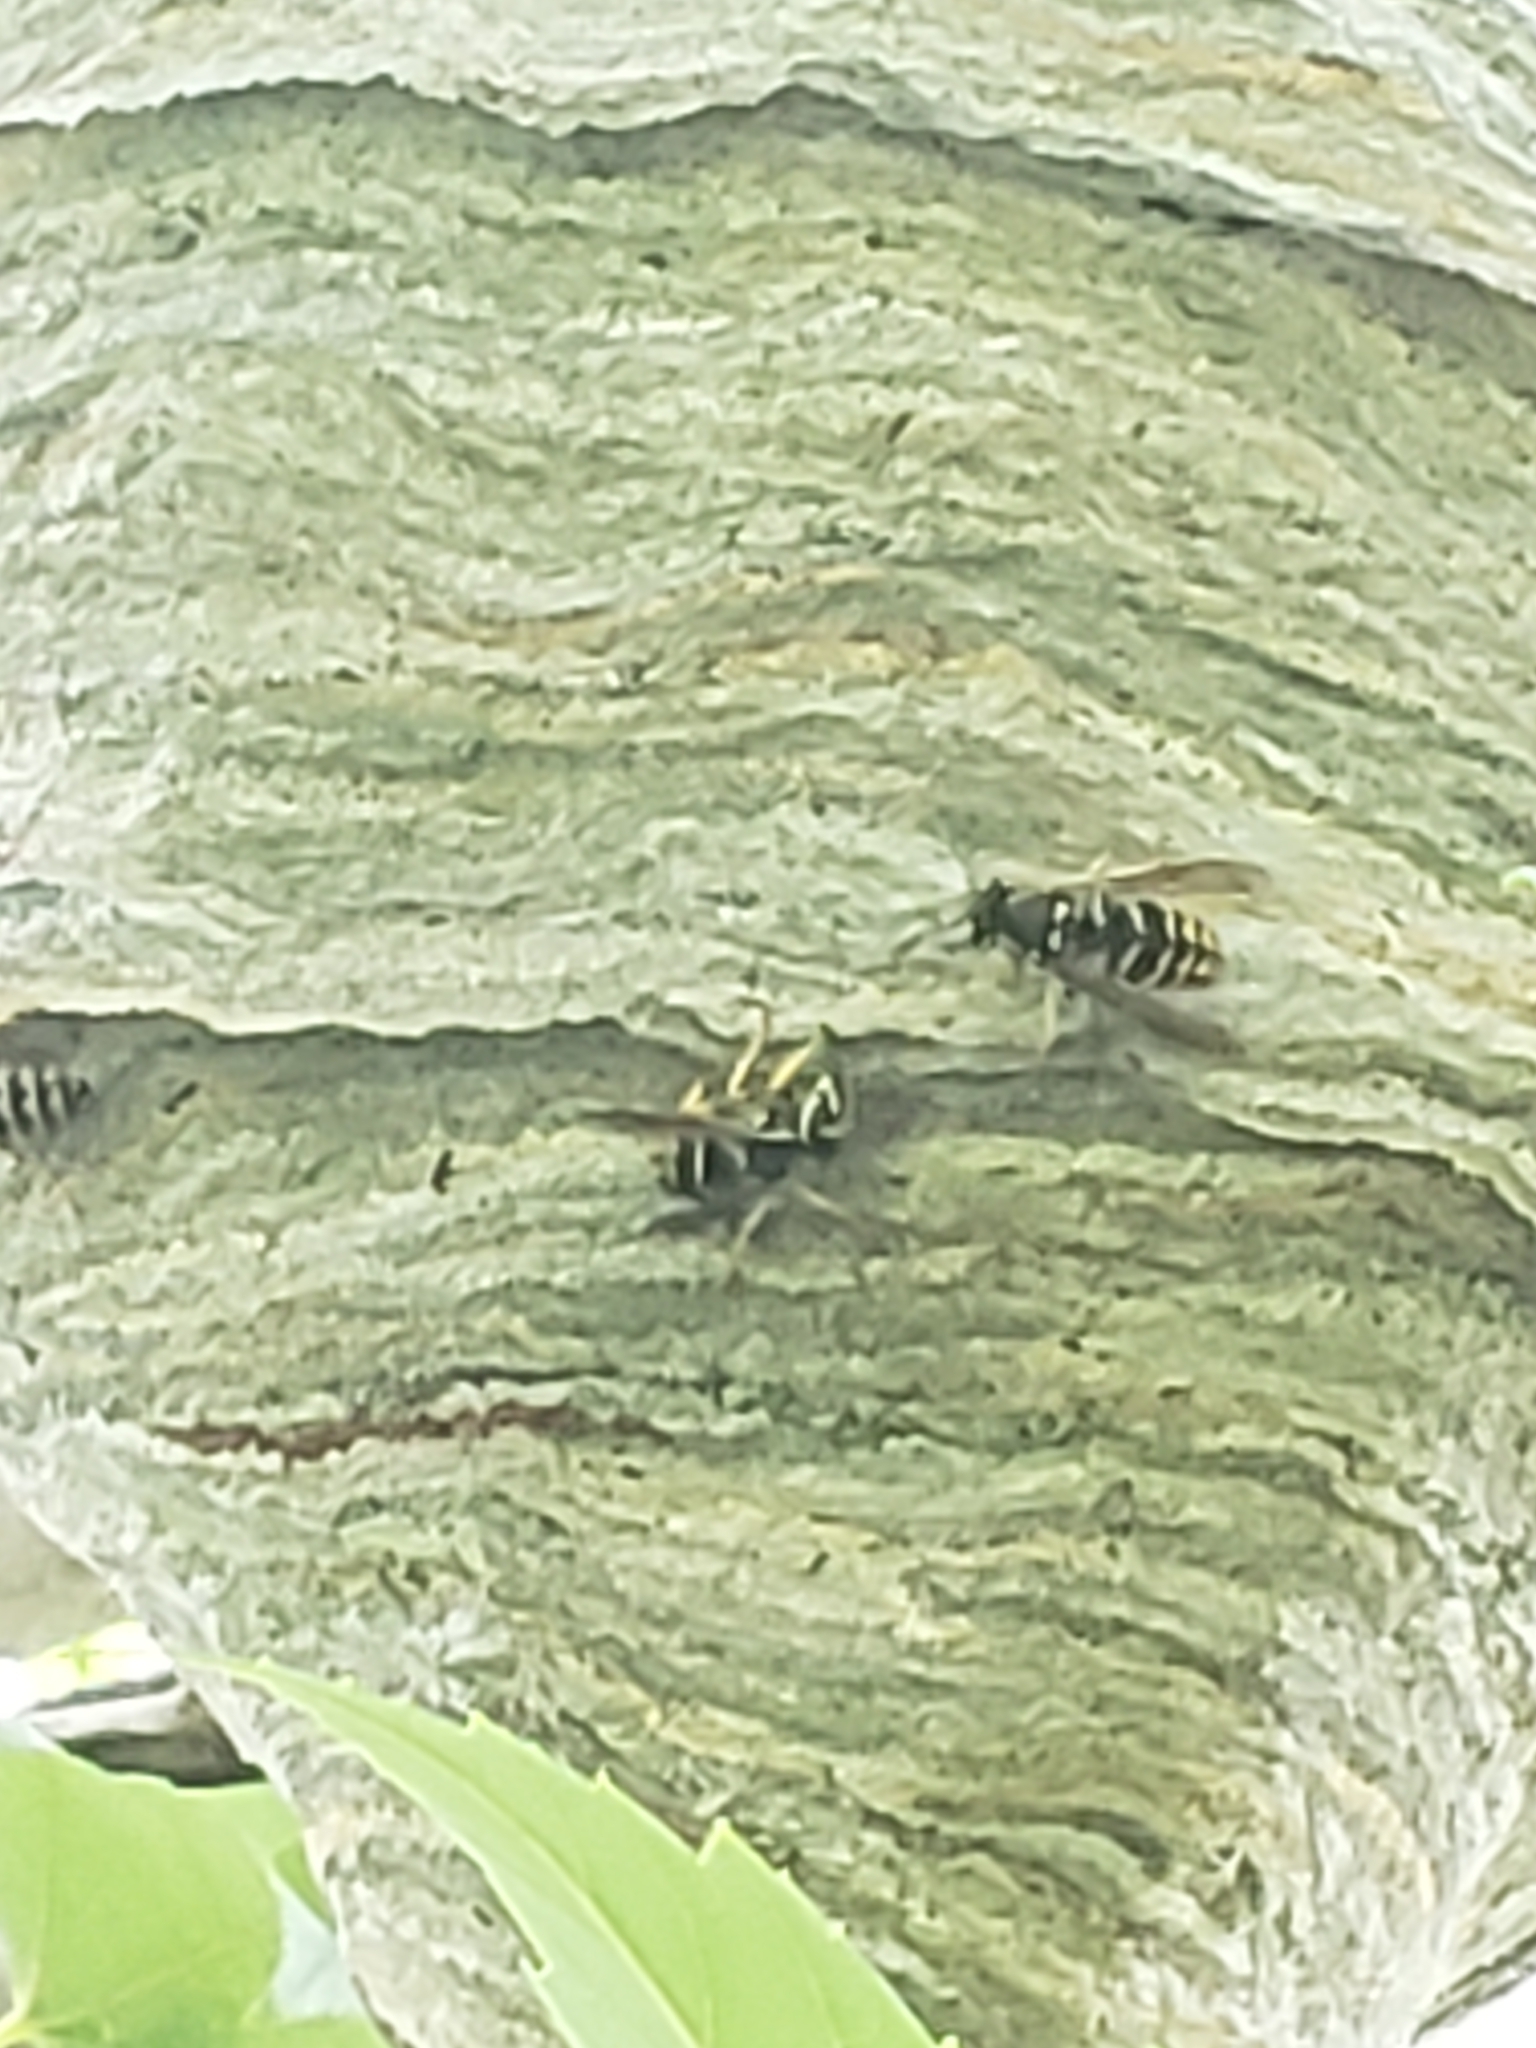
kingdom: Animalia
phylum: Arthropoda
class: Insecta
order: Hymenoptera
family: Vespidae
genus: Dolichovespula
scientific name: Dolichovespula arenaria
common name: Aerial yellowjacket
